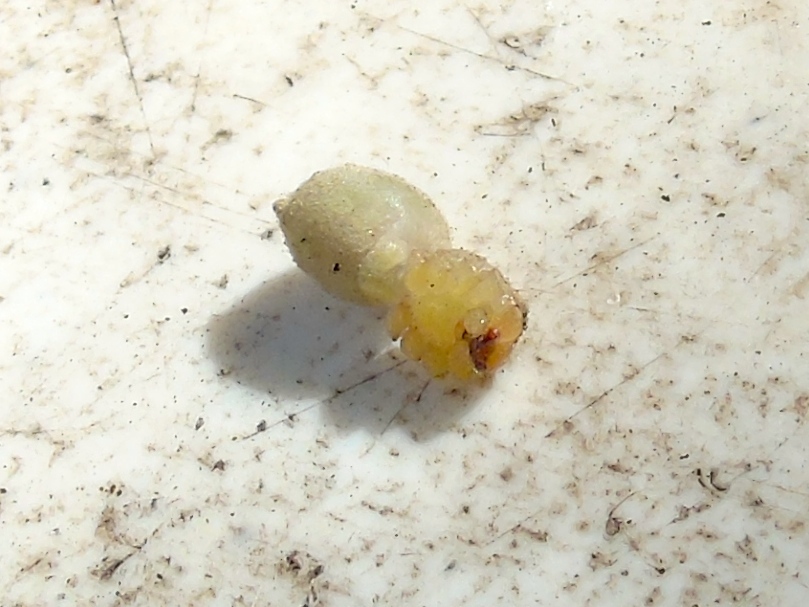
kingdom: Animalia
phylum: Arthropoda
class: Arachnida
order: Araneae
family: Sparassidae
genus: Curicaberis
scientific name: Curicaberis culiacan
